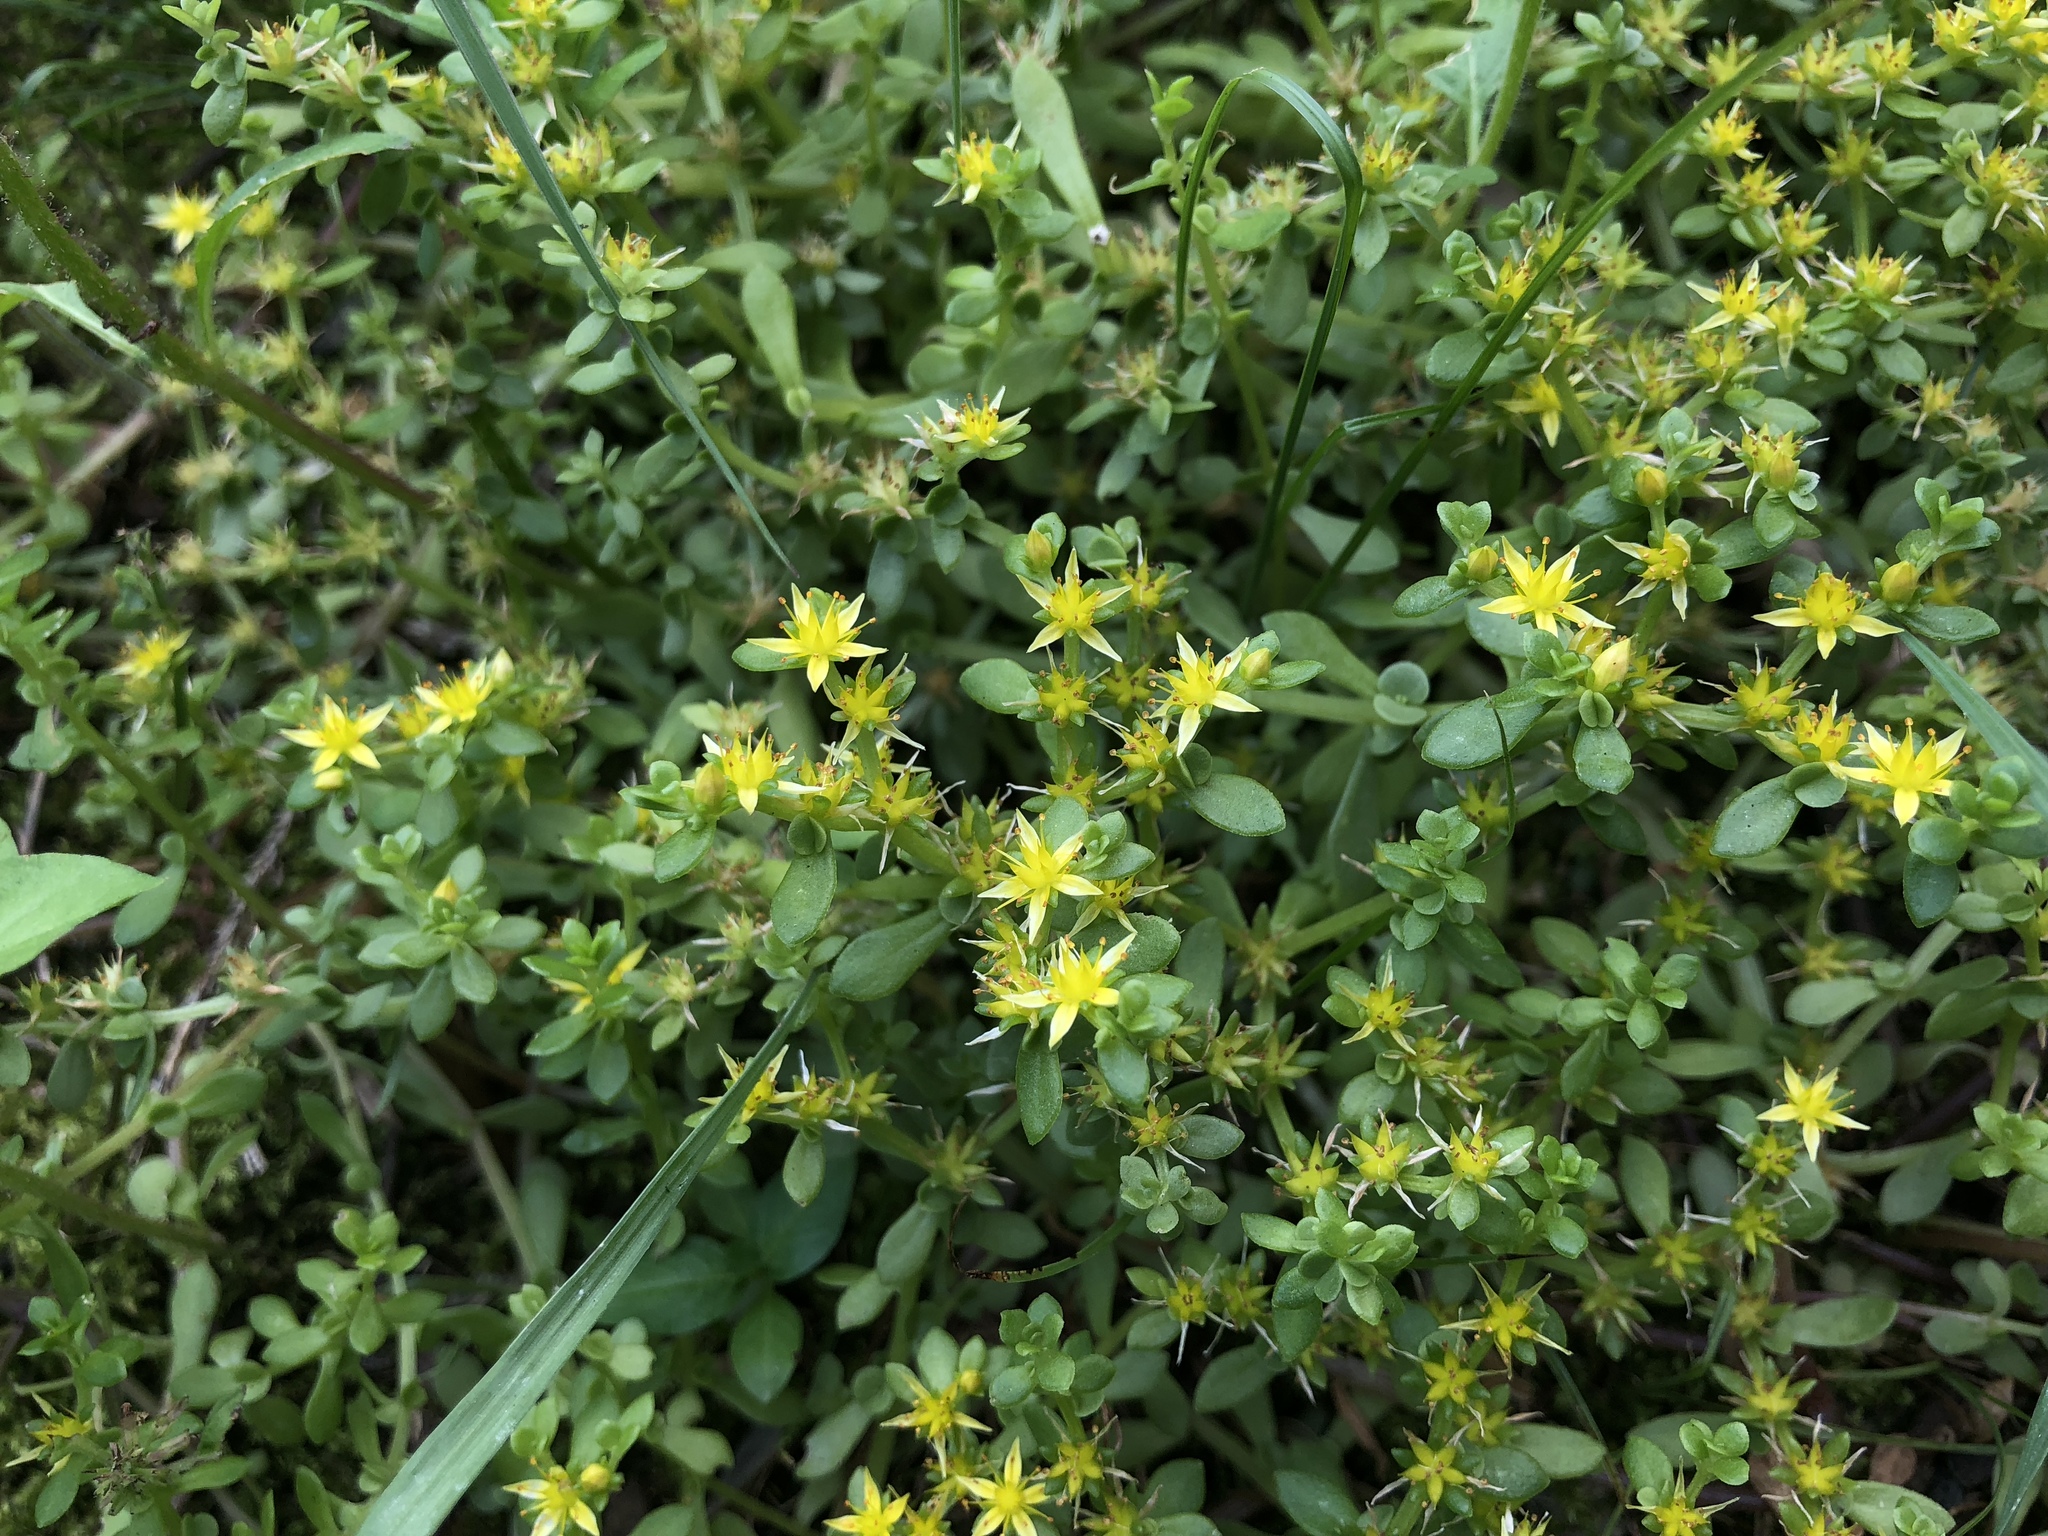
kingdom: Plantae
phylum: Tracheophyta
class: Magnoliopsida
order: Saxifragales
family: Crassulaceae
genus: Sedum
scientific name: Sedum bulbiferum
